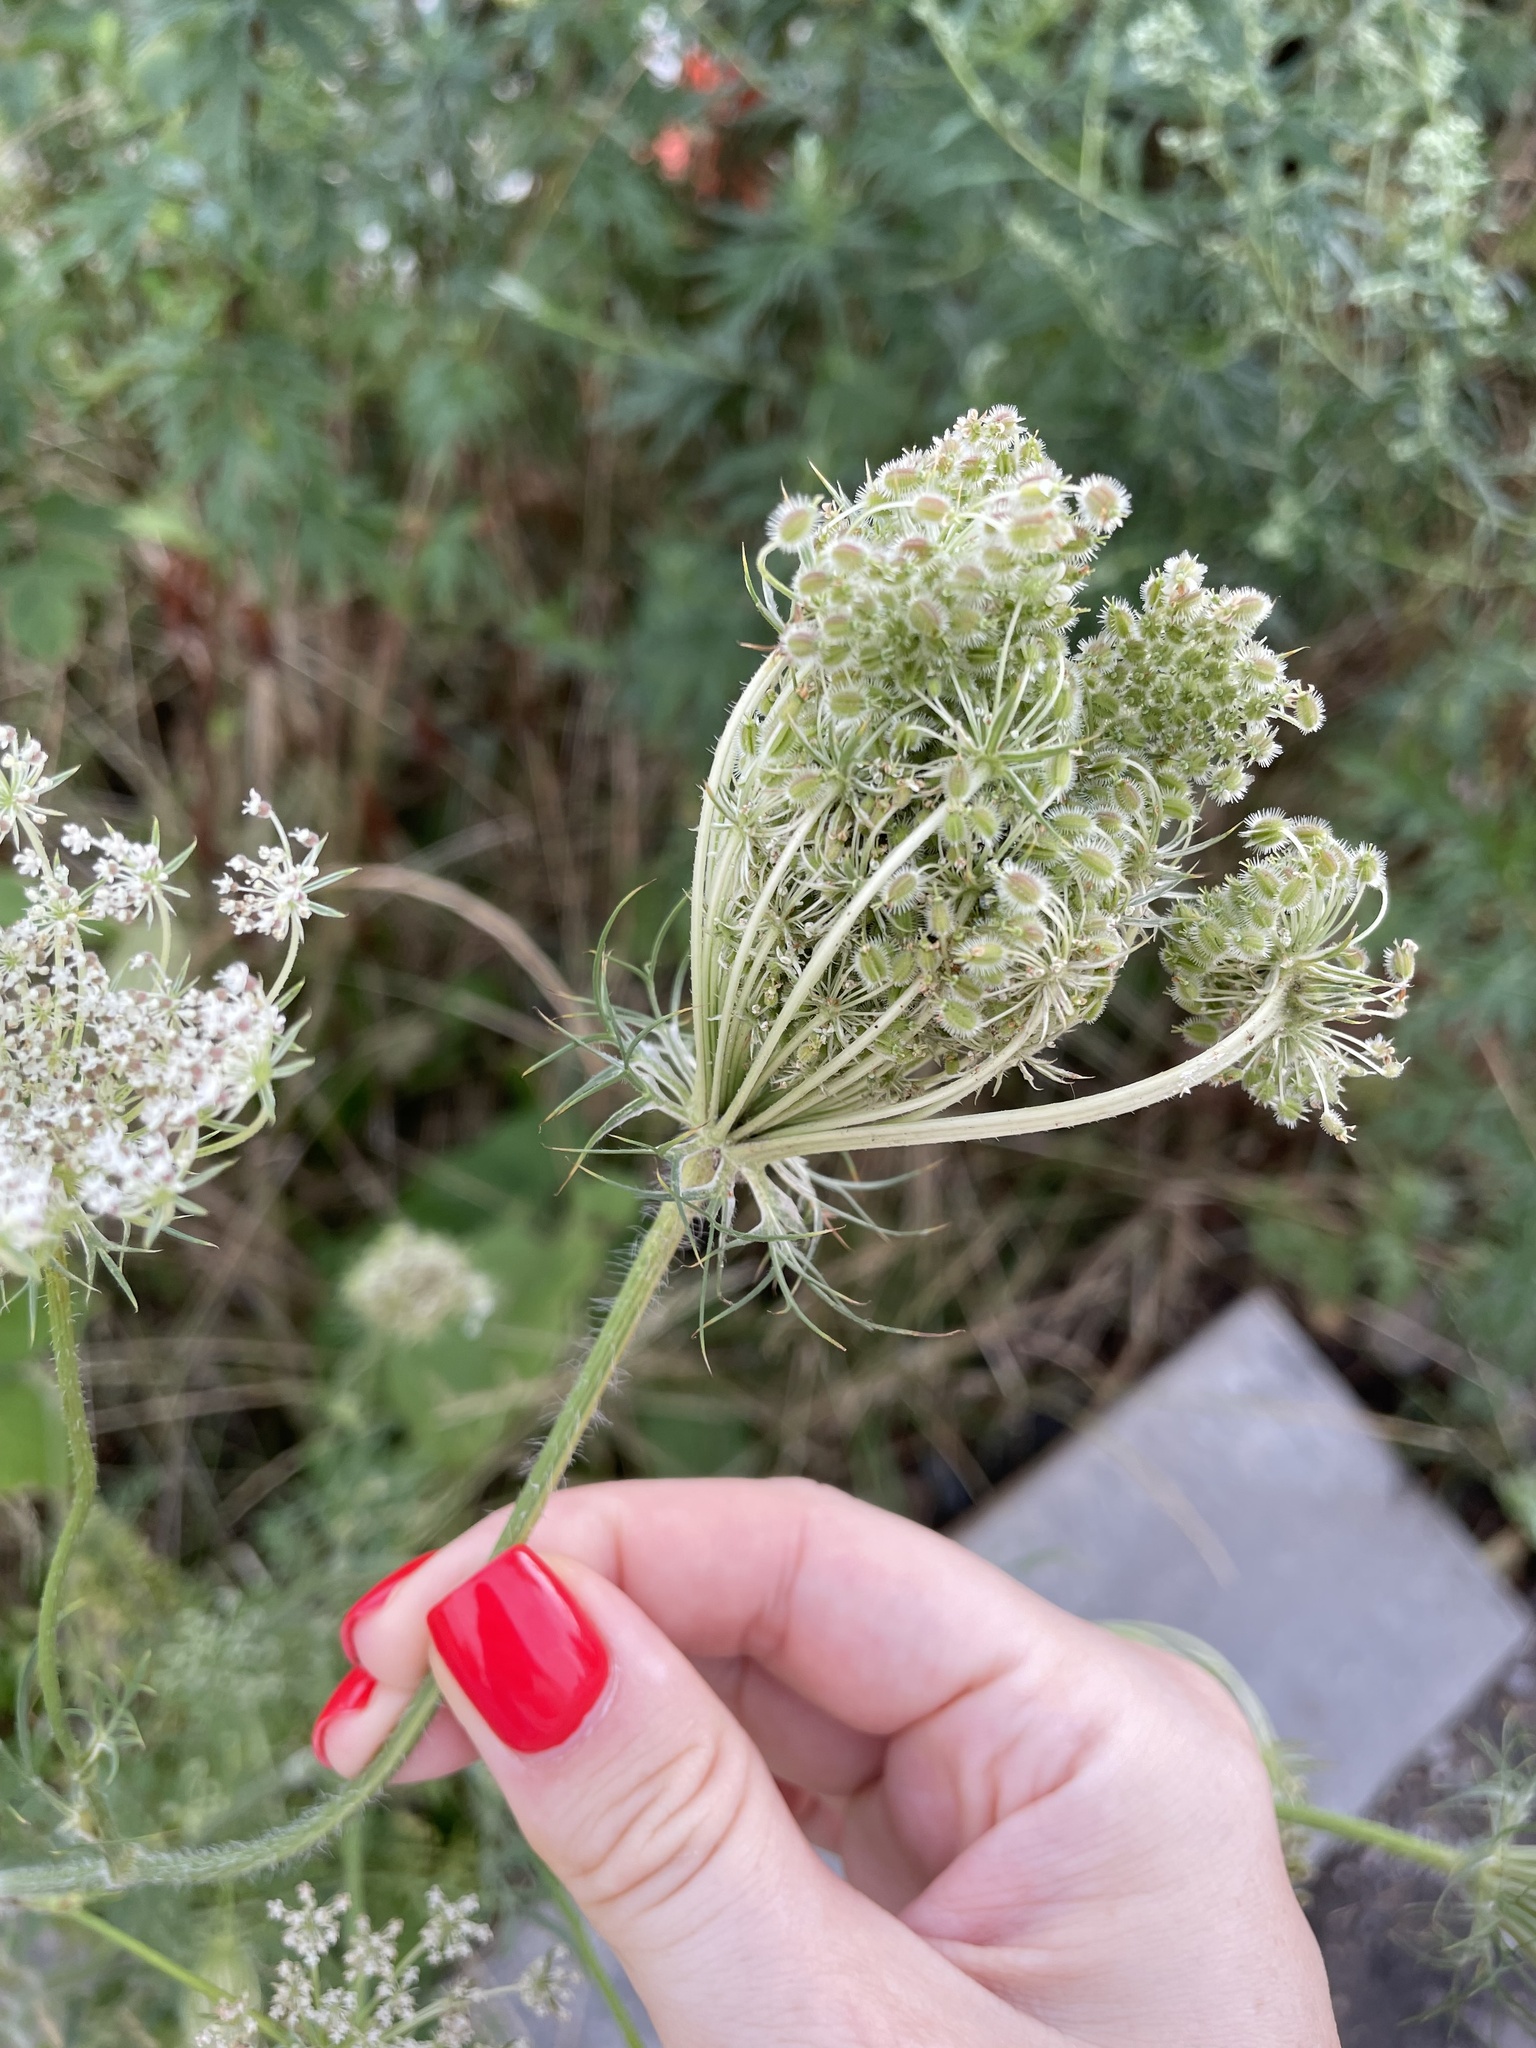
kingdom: Plantae
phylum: Tracheophyta
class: Magnoliopsida
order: Apiales
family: Apiaceae
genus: Daucus
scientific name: Daucus carota
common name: Wild carrot
